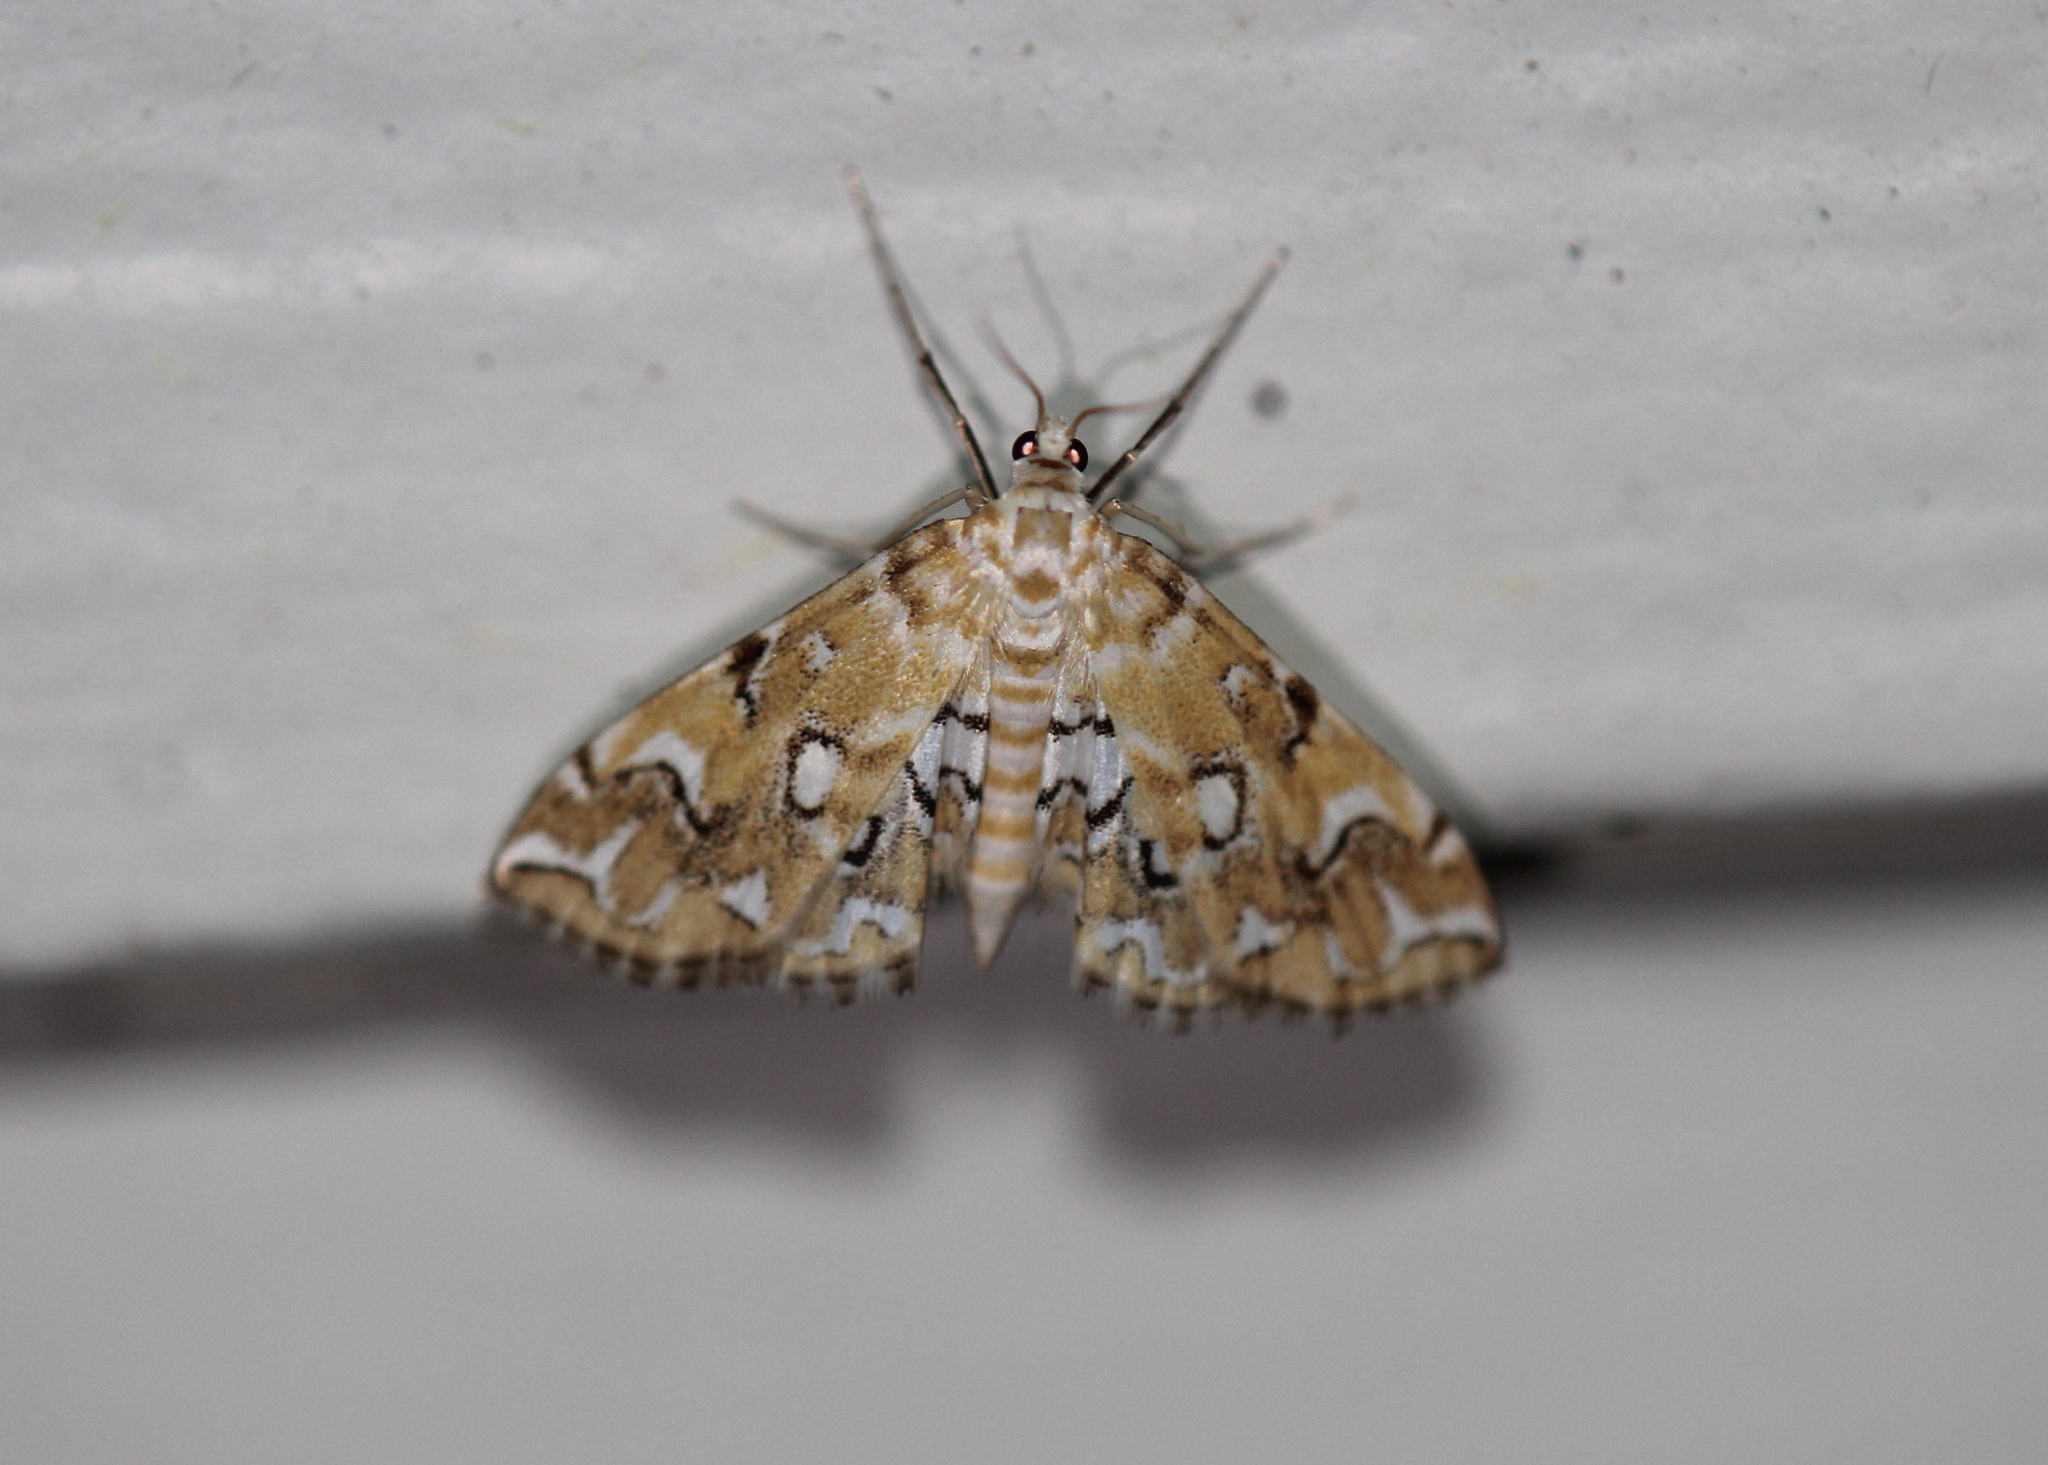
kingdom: Animalia
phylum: Arthropoda
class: Insecta
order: Lepidoptera
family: Crambidae
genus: Elophila
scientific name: Elophila icciusalis
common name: Pondside pyralid moth
